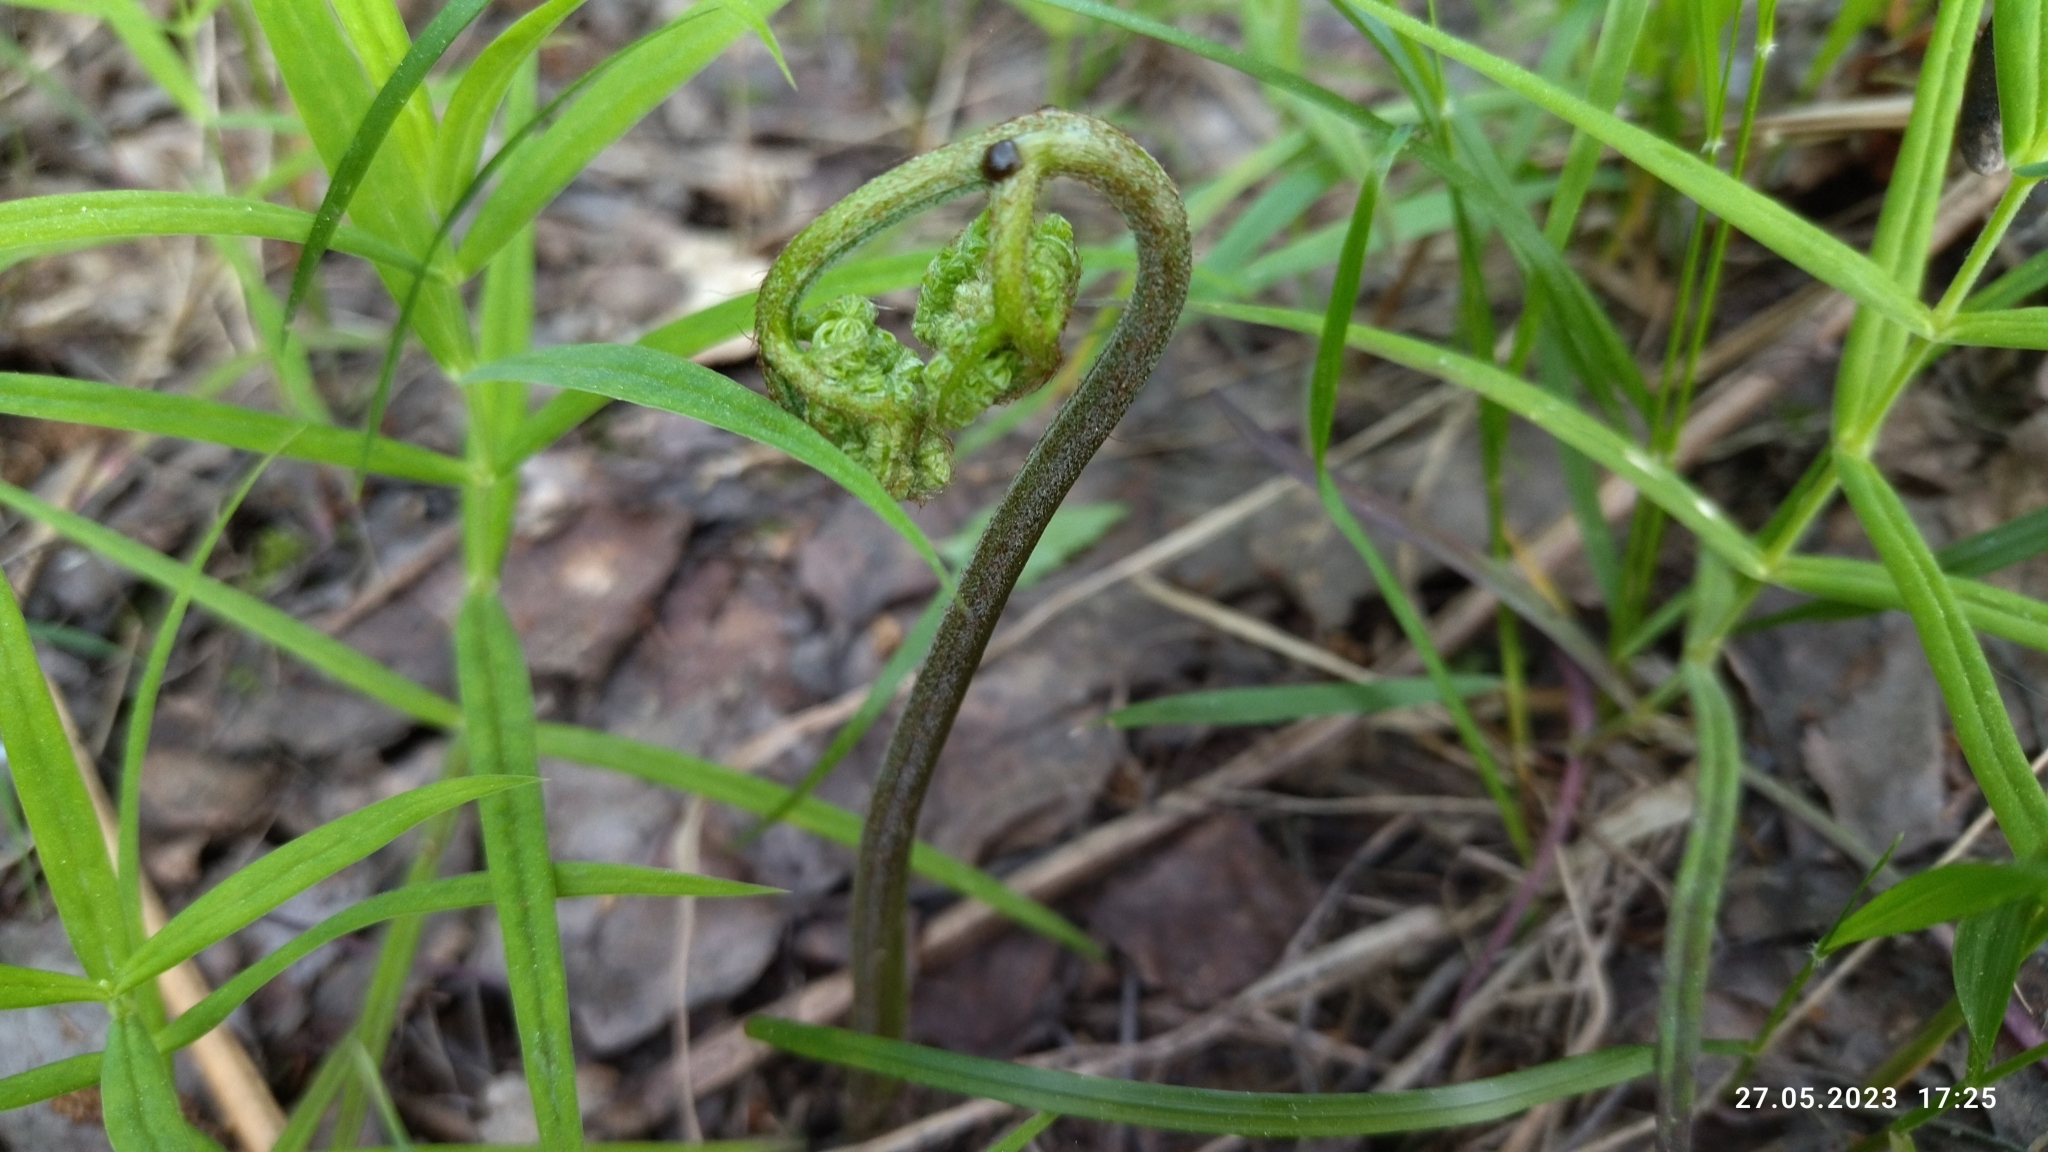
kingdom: Plantae
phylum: Tracheophyta
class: Polypodiopsida
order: Polypodiales
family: Dennstaedtiaceae
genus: Pteridium
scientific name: Pteridium aquilinum
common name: Bracken
